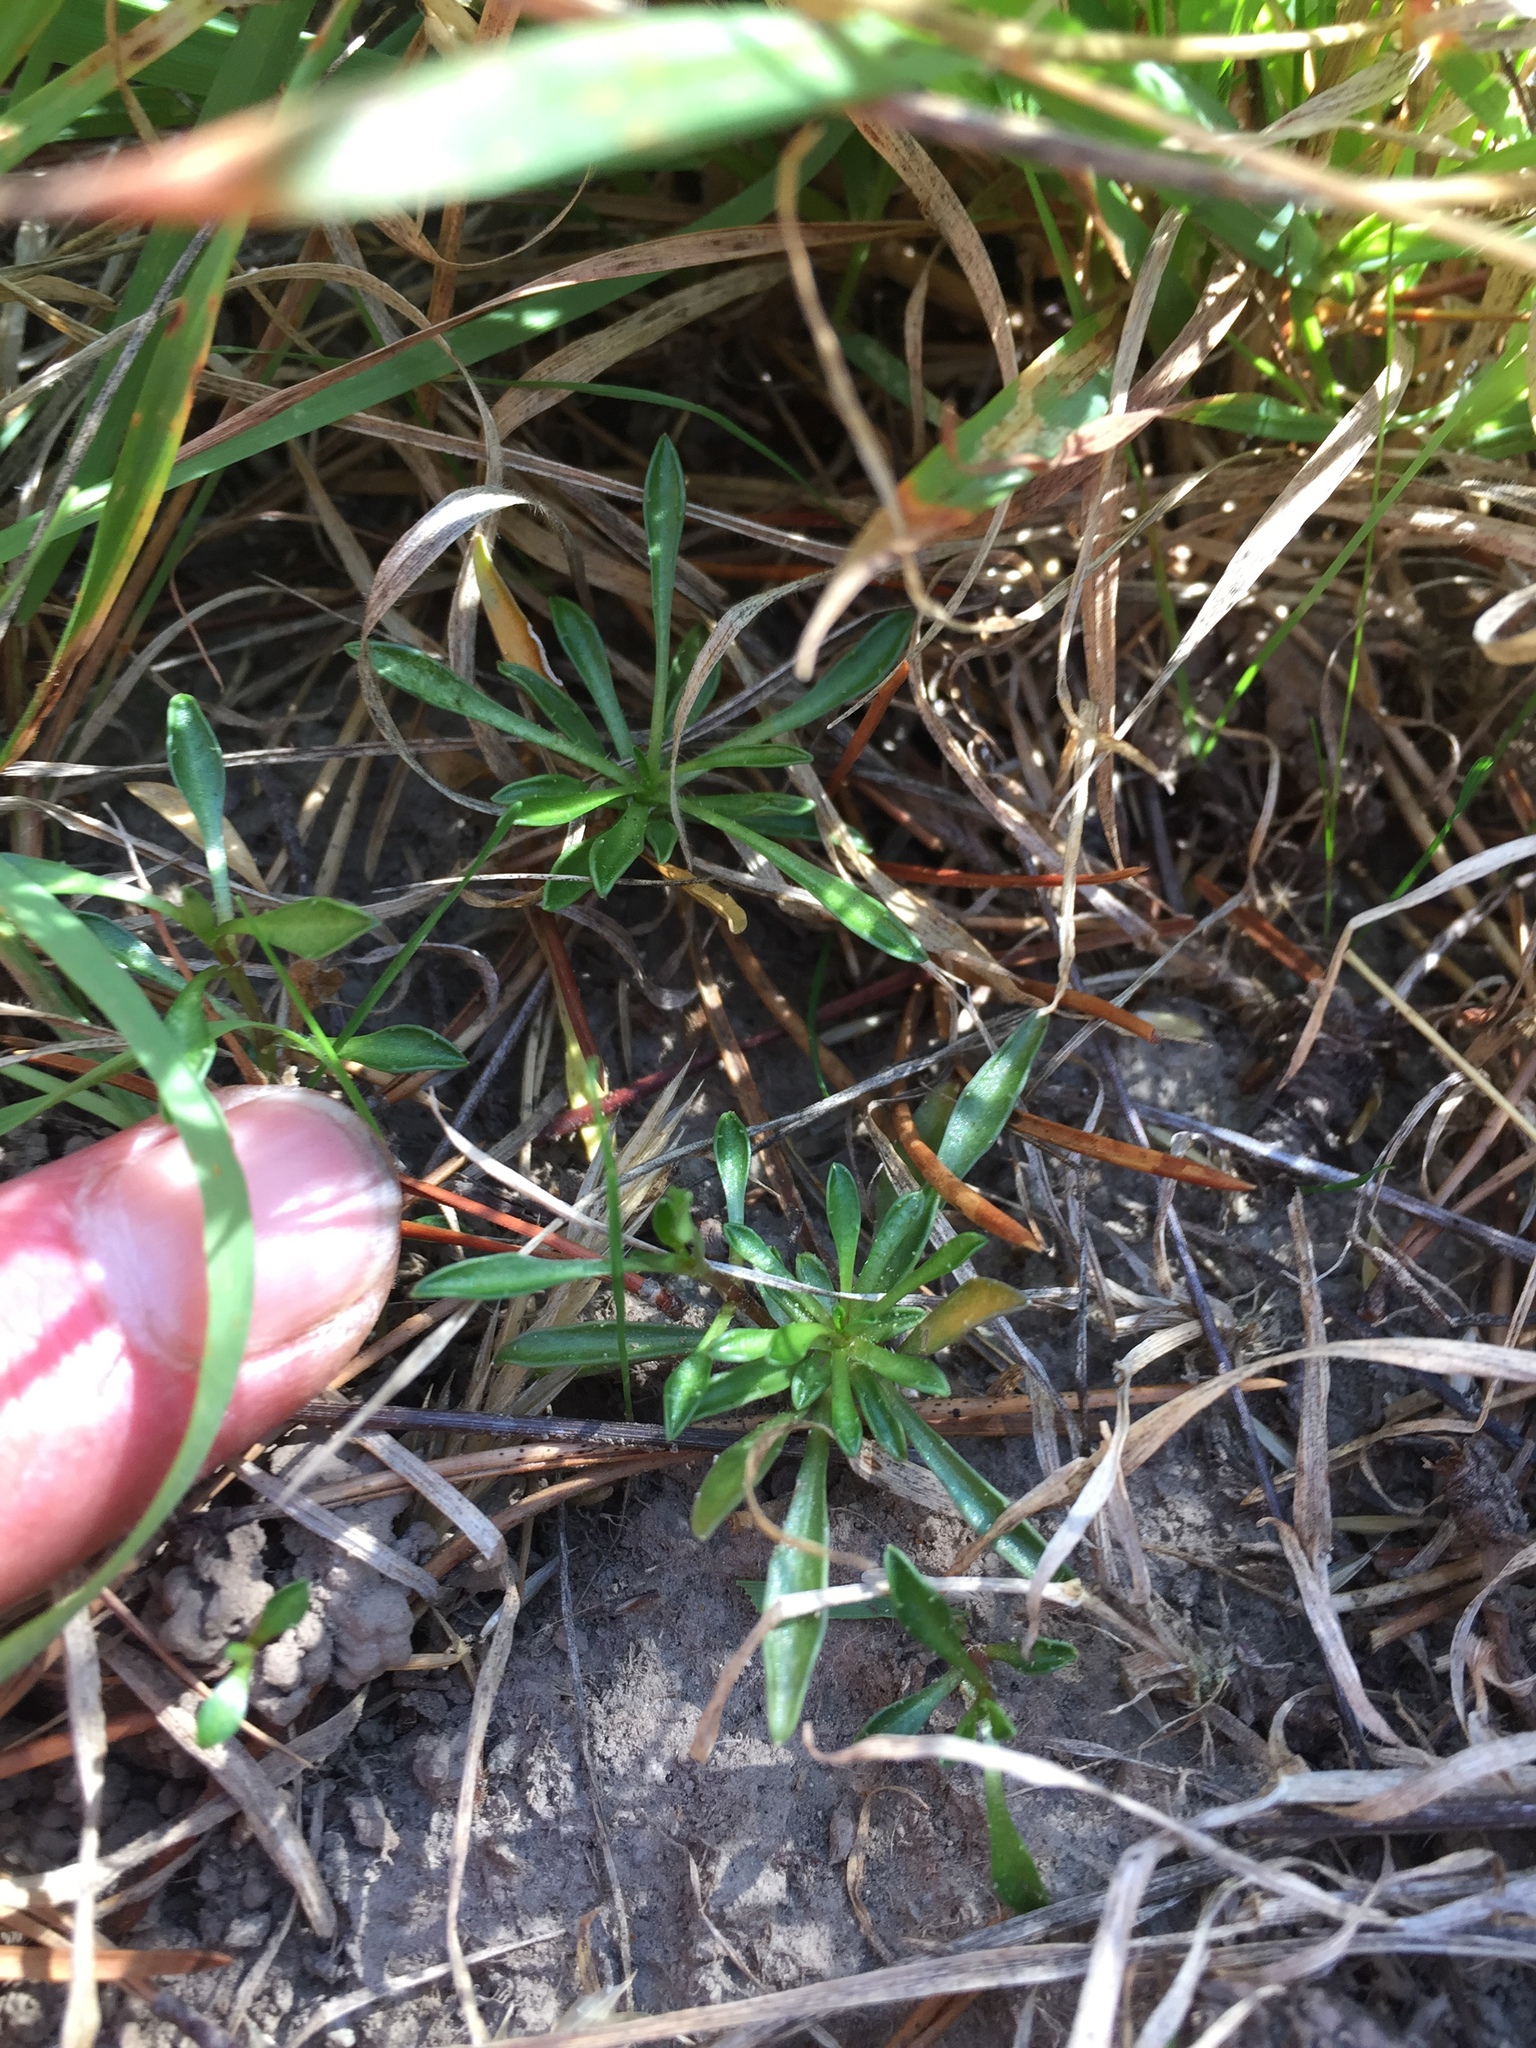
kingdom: Plantae
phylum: Tracheophyta
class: Magnoliopsida
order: Asterales
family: Campanulaceae
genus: Wahlenbergia
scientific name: Wahlenbergia albomarginata
